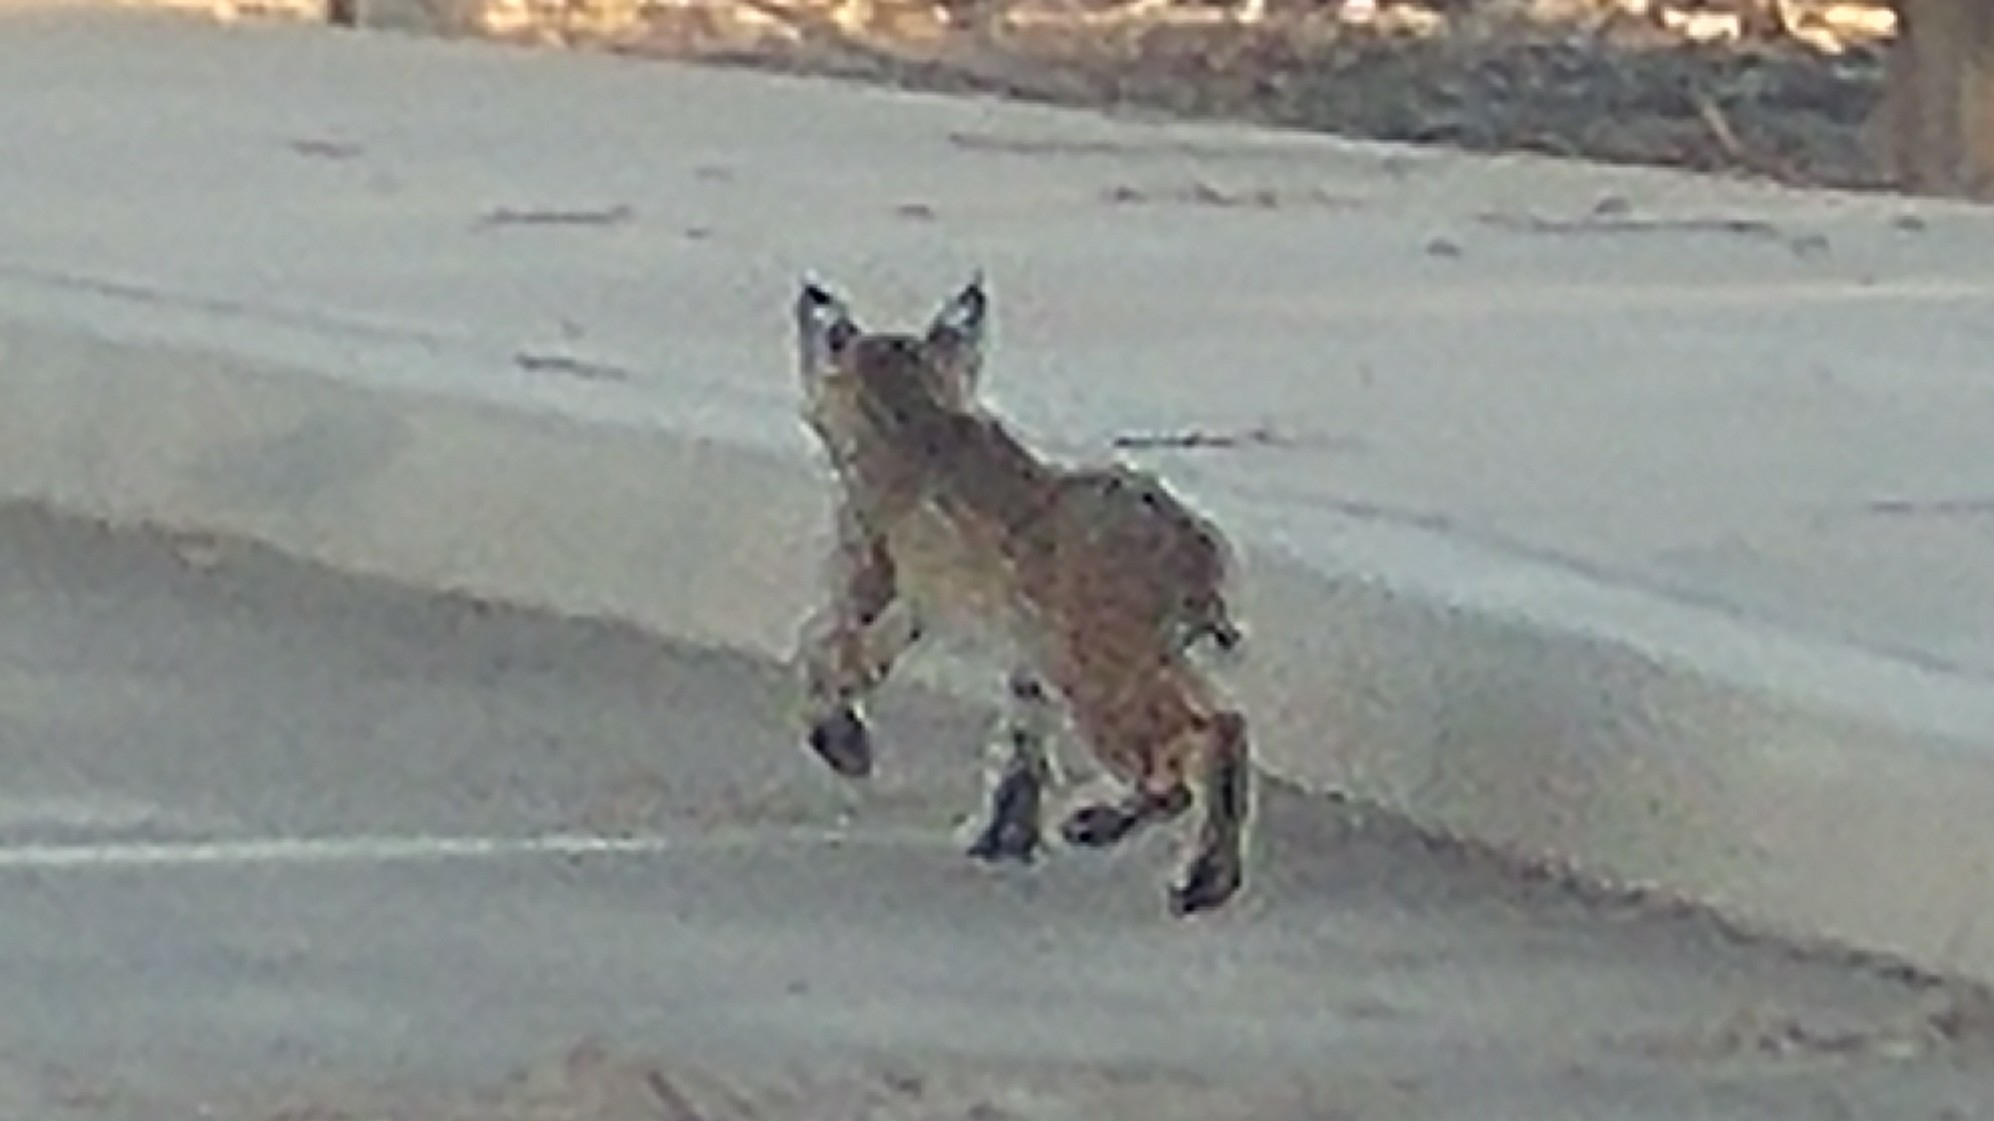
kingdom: Animalia
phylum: Chordata
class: Mammalia
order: Carnivora
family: Felidae
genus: Lynx
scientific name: Lynx rufus
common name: Bobcat
